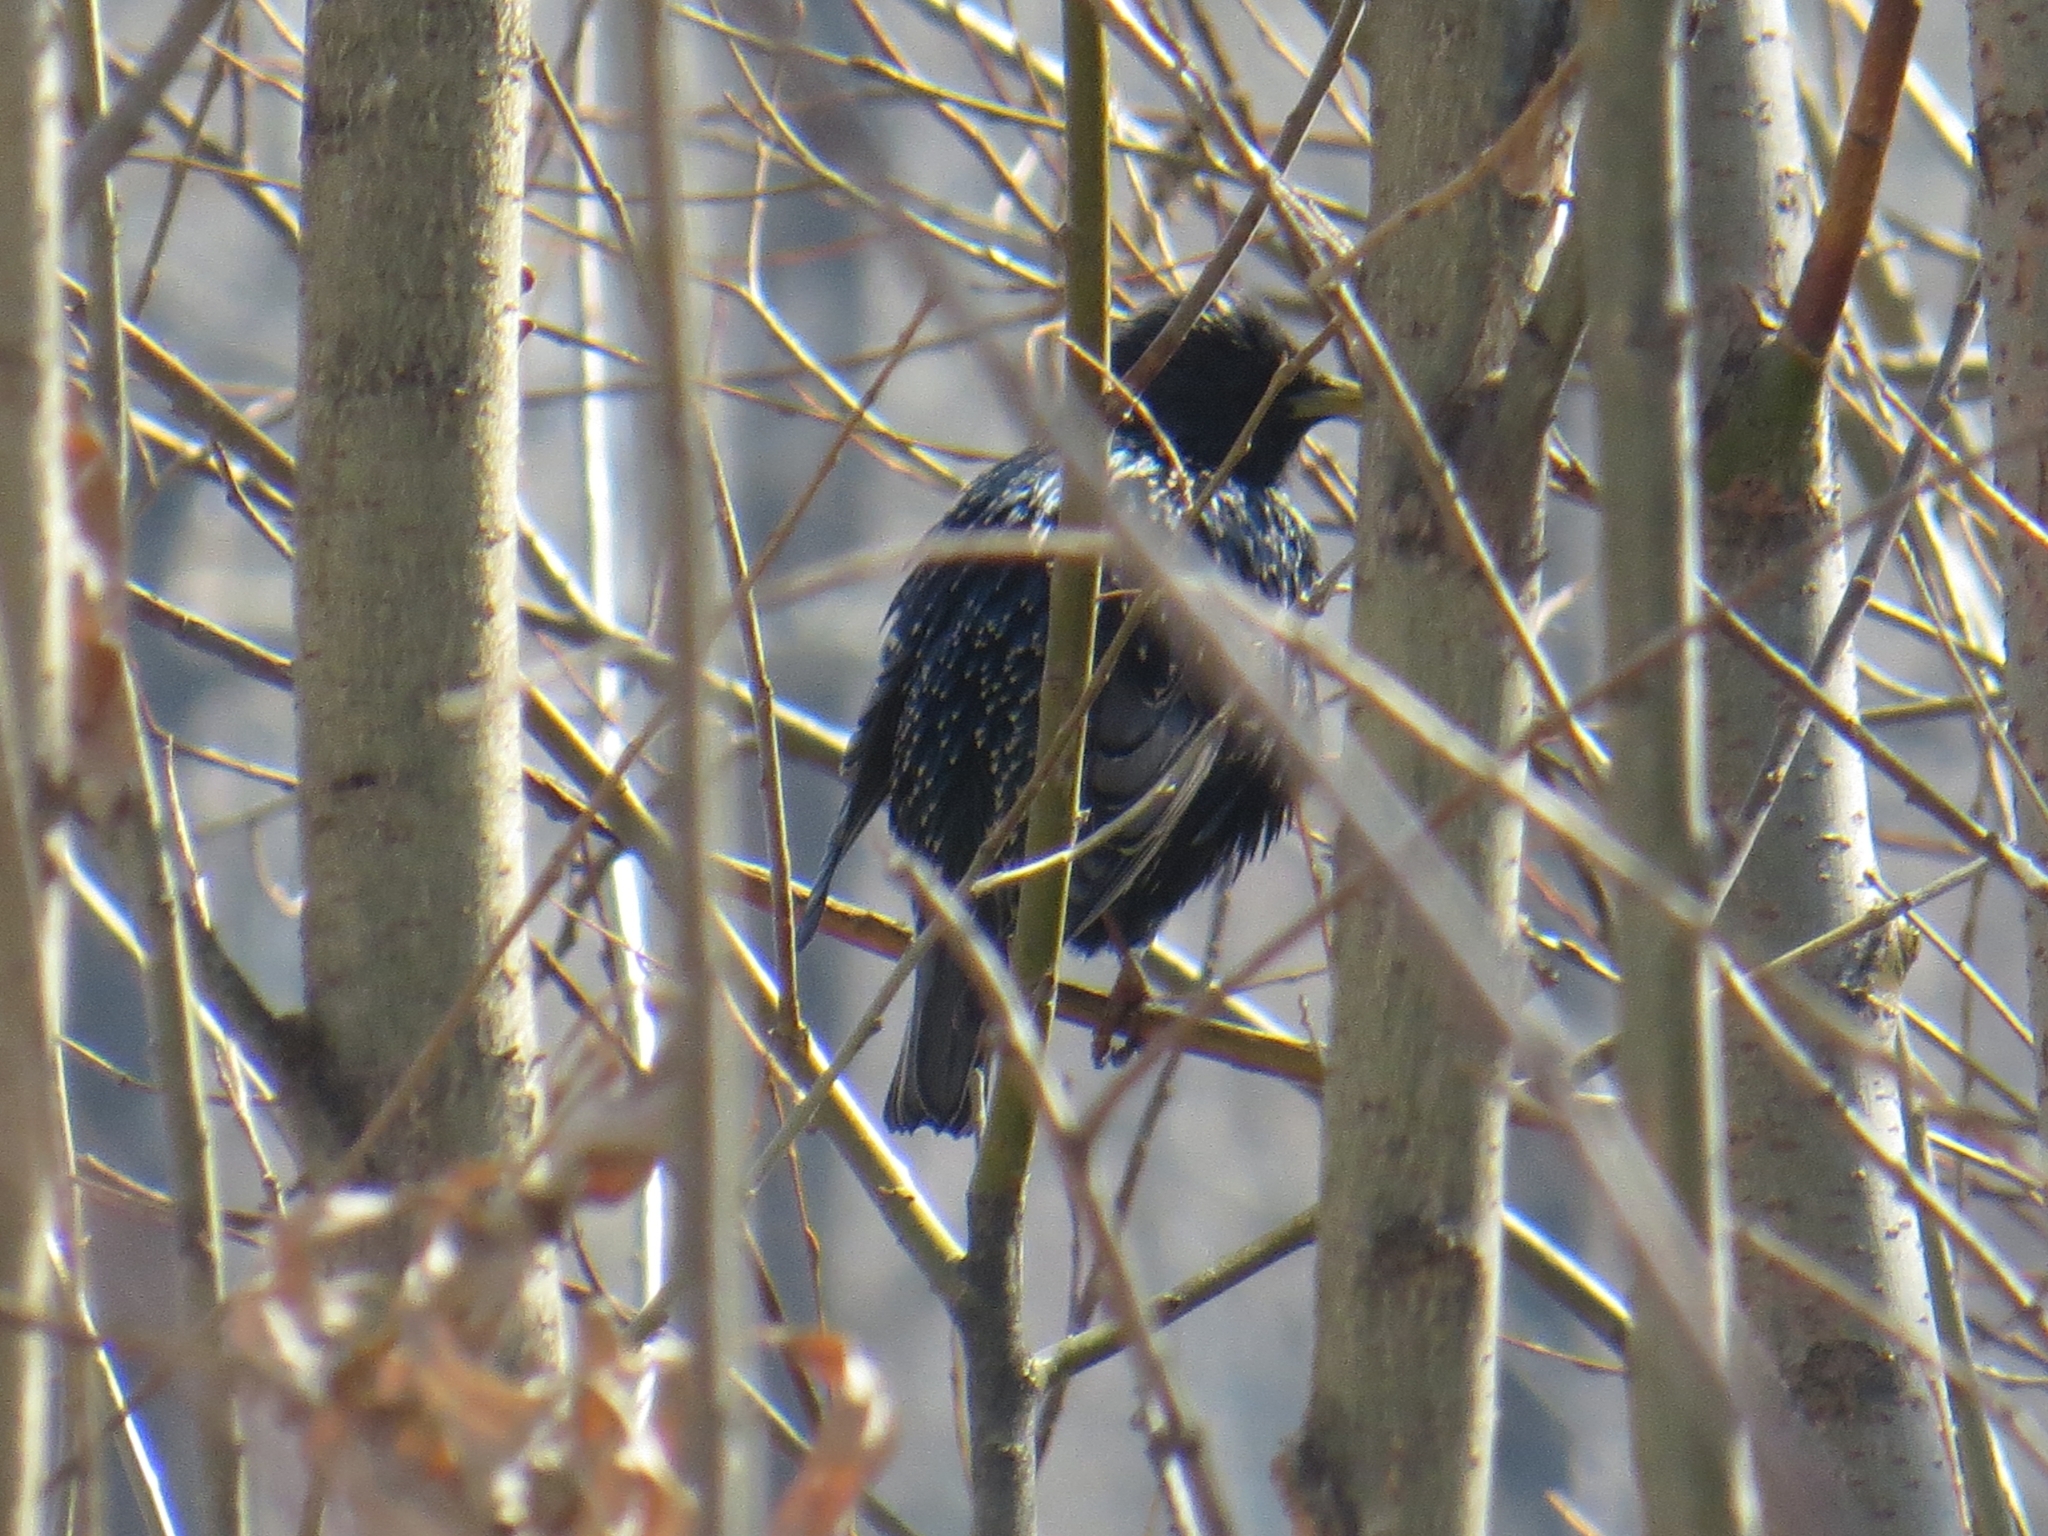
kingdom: Animalia
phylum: Chordata
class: Aves
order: Passeriformes
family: Sturnidae
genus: Sturnus
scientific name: Sturnus vulgaris
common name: Common starling
